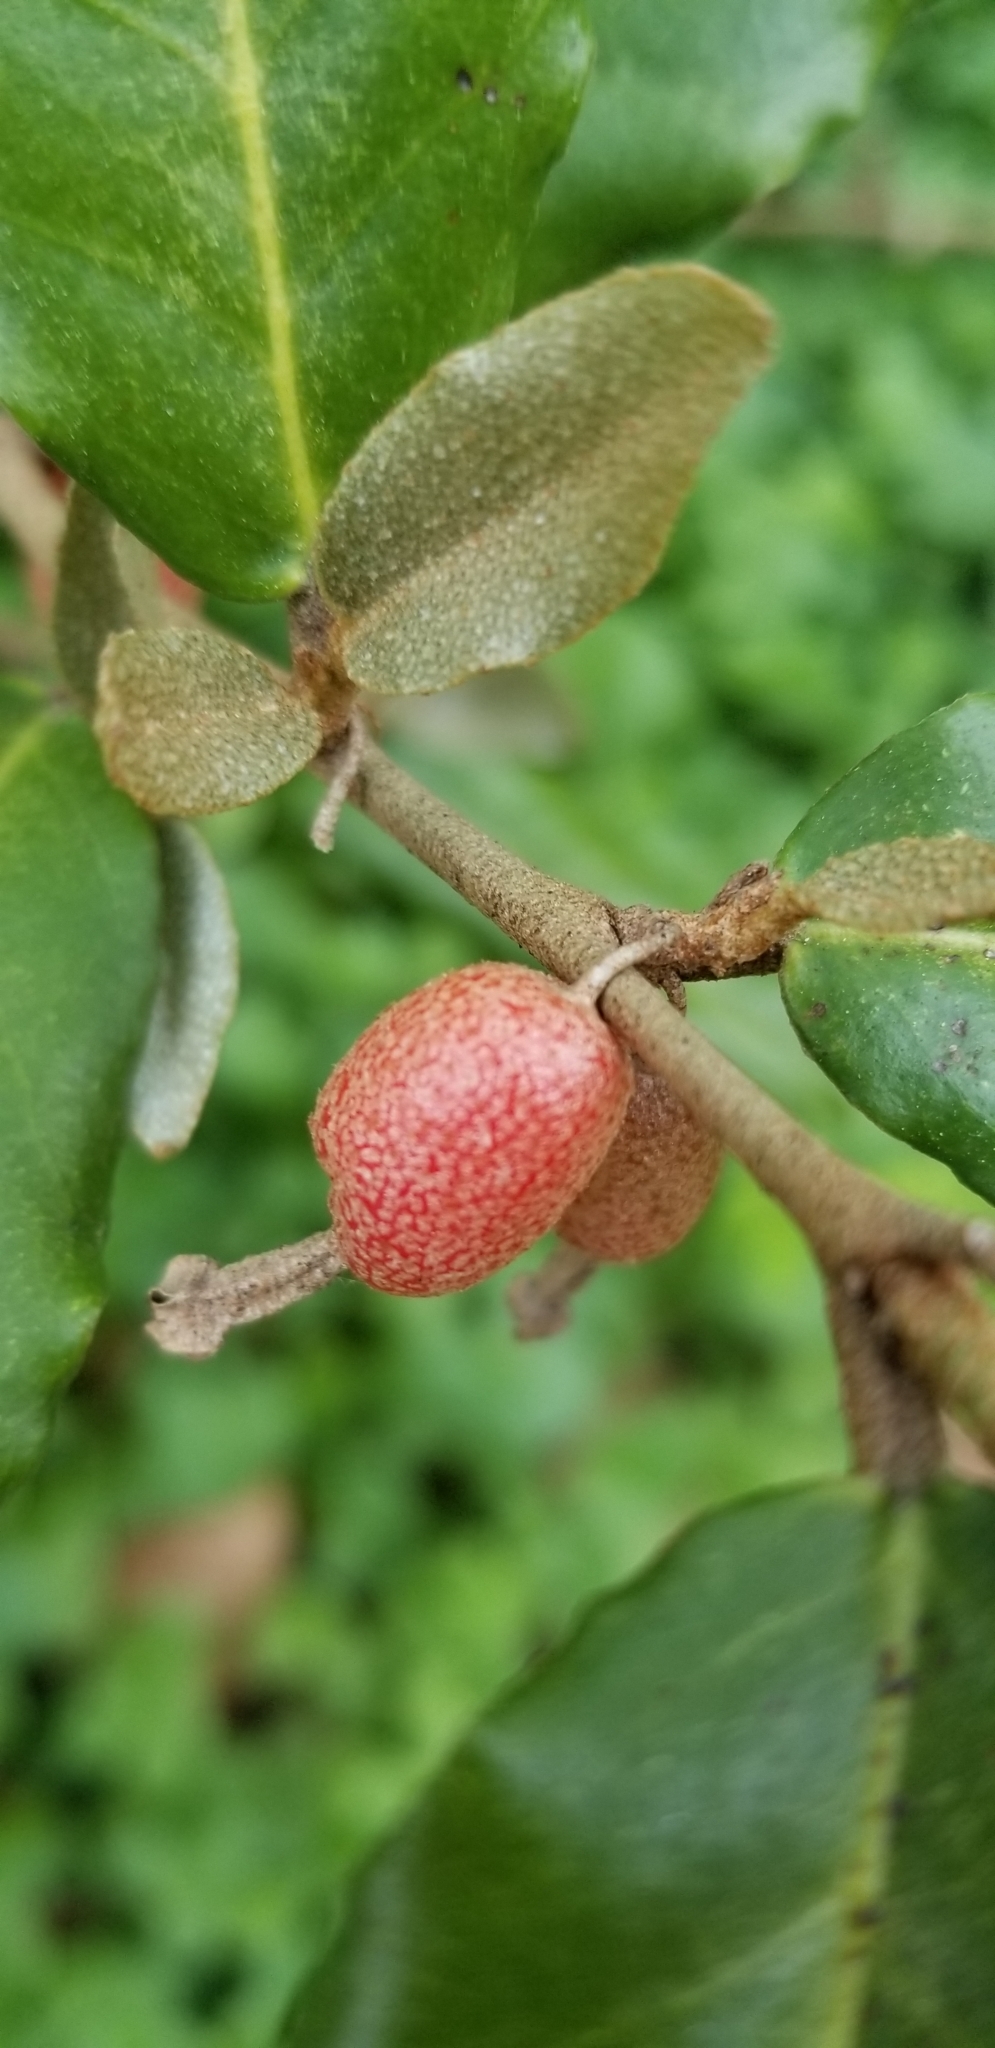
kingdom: Plantae
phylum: Tracheophyta
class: Magnoliopsida
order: Rosales
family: Elaeagnaceae
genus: Elaeagnus
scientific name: Elaeagnus pungens
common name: Spiny oleaster
